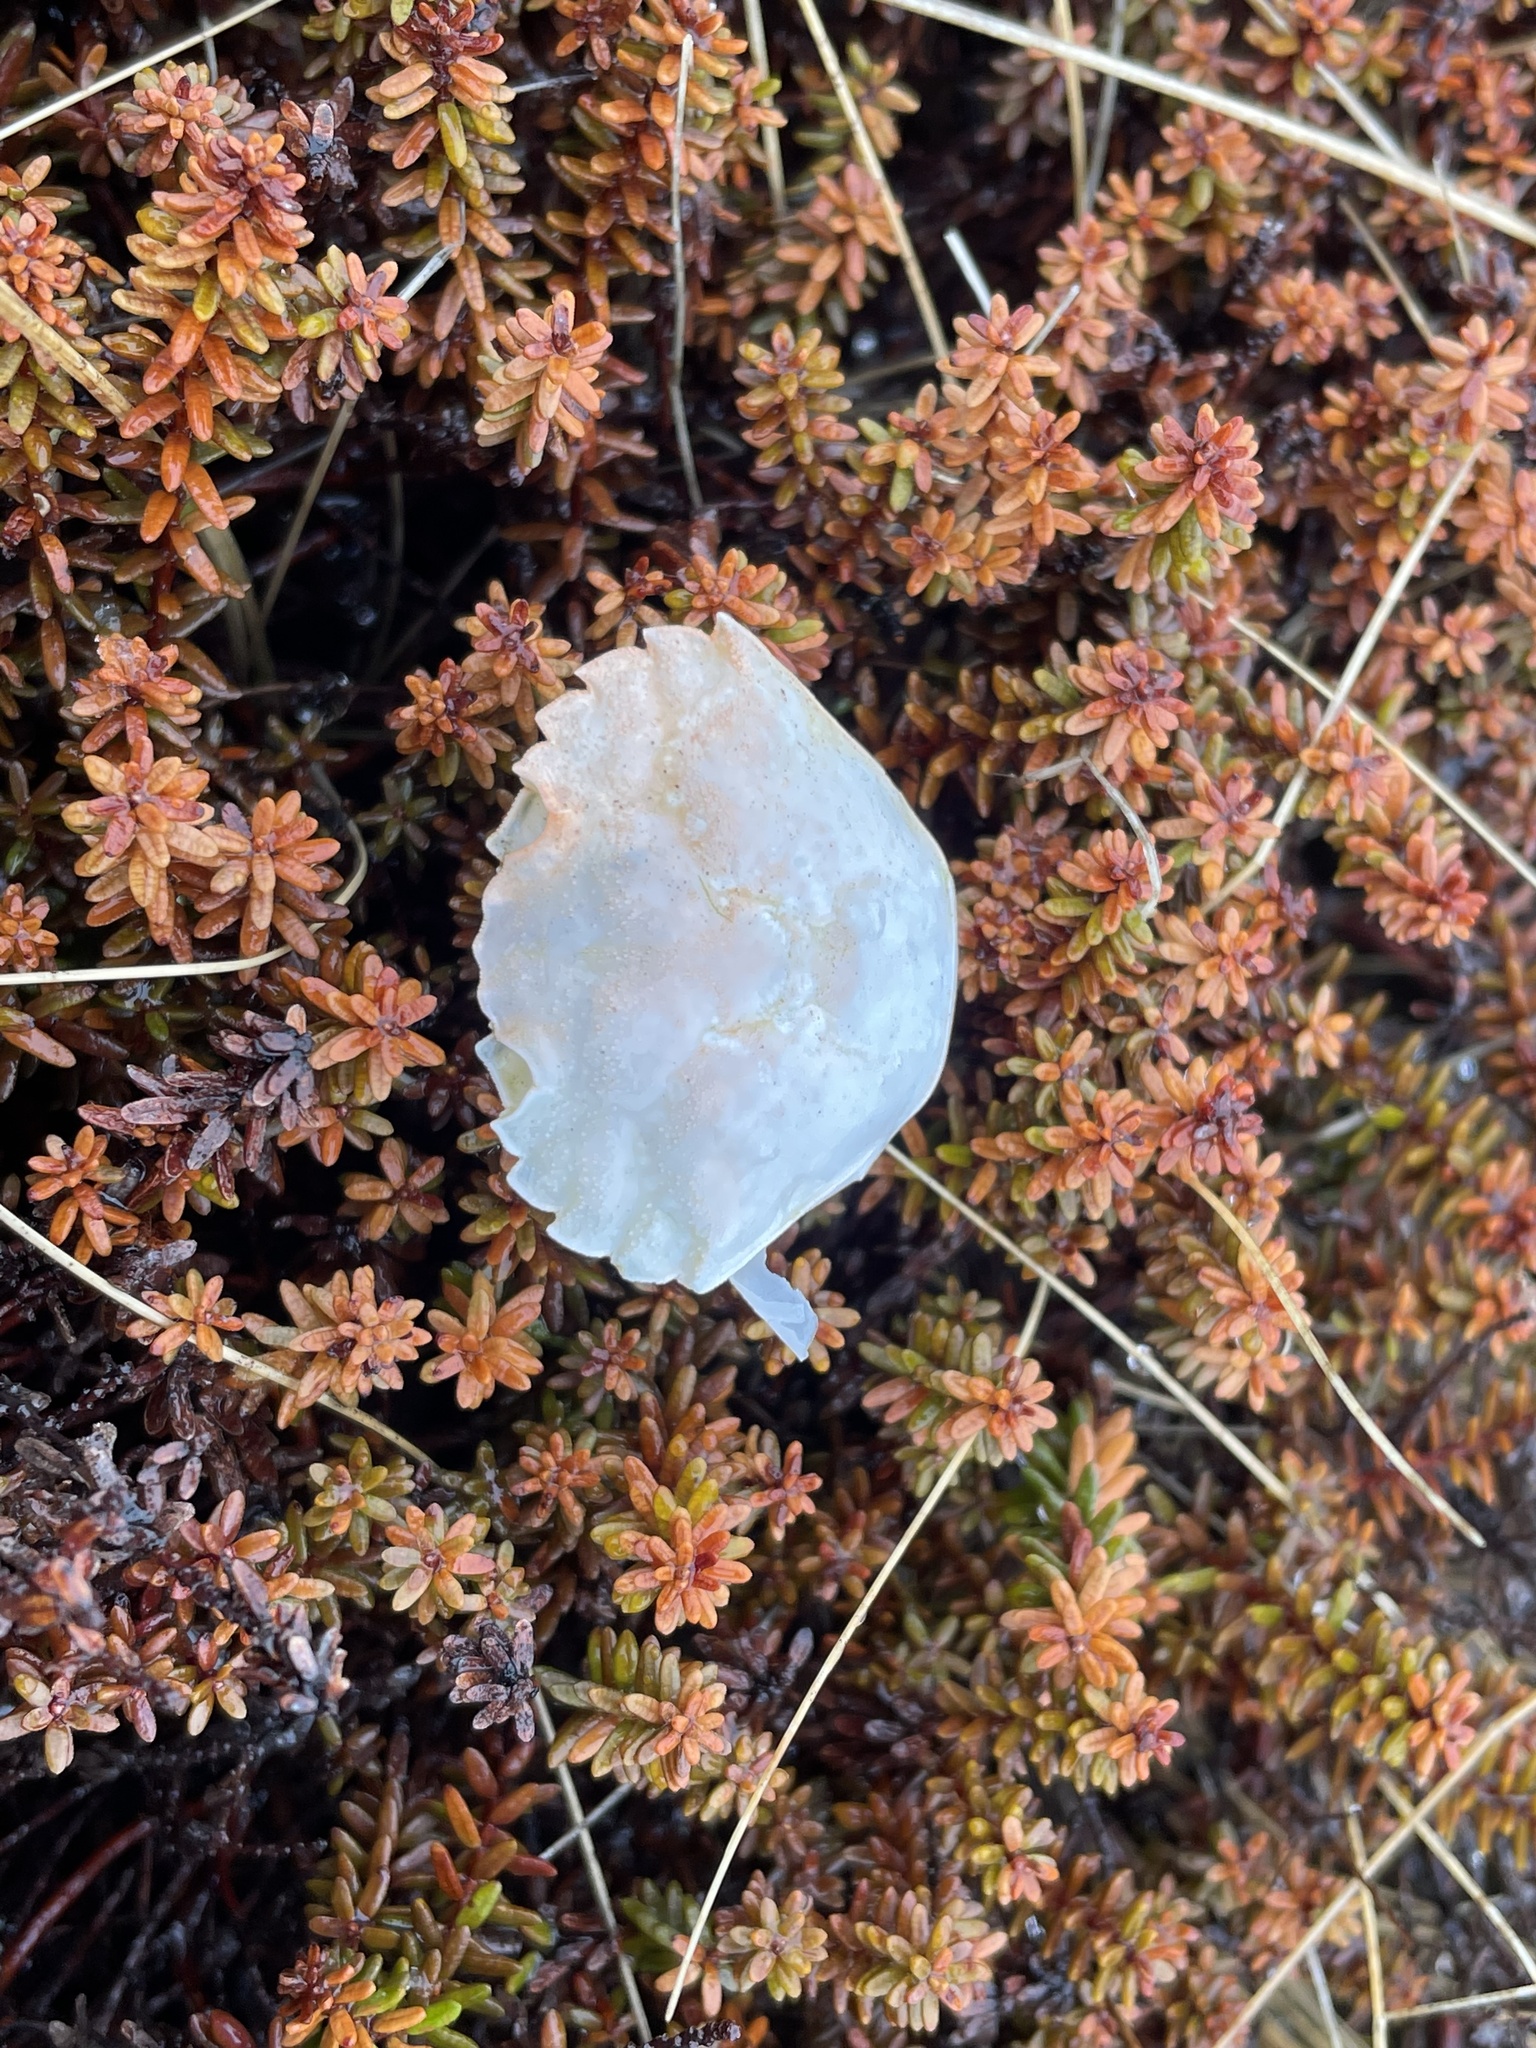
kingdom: Animalia
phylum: Arthropoda
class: Malacostraca
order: Decapoda
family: Carcinidae
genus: Carcinus
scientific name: Carcinus maenas
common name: European green crab
